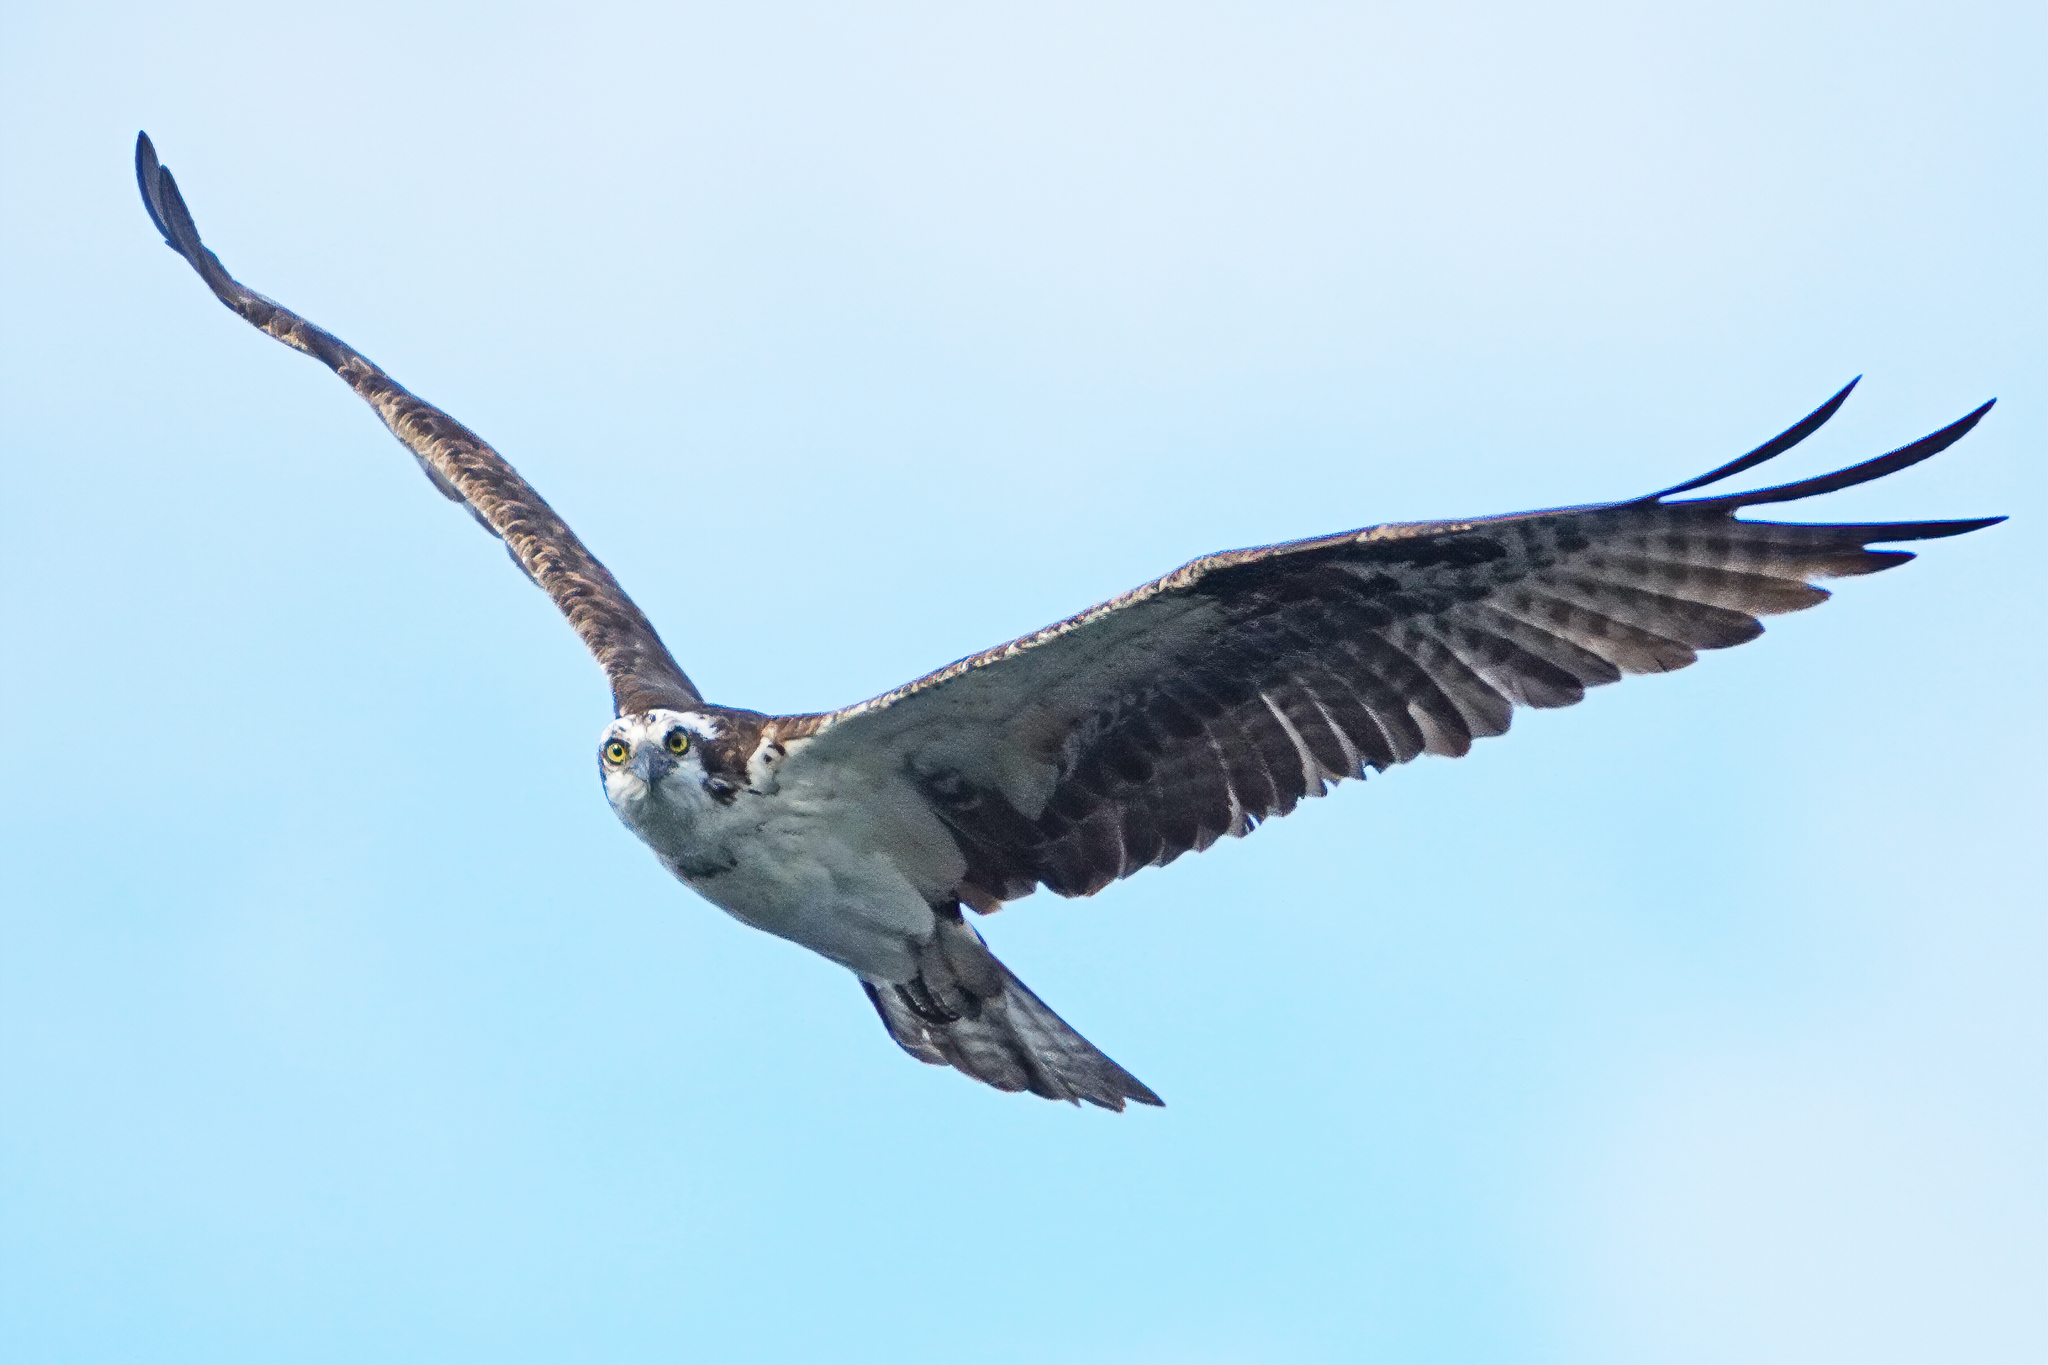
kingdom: Animalia
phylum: Chordata
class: Aves
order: Accipitriformes
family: Pandionidae
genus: Pandion
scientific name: Pandion haliaetus
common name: Osprey
